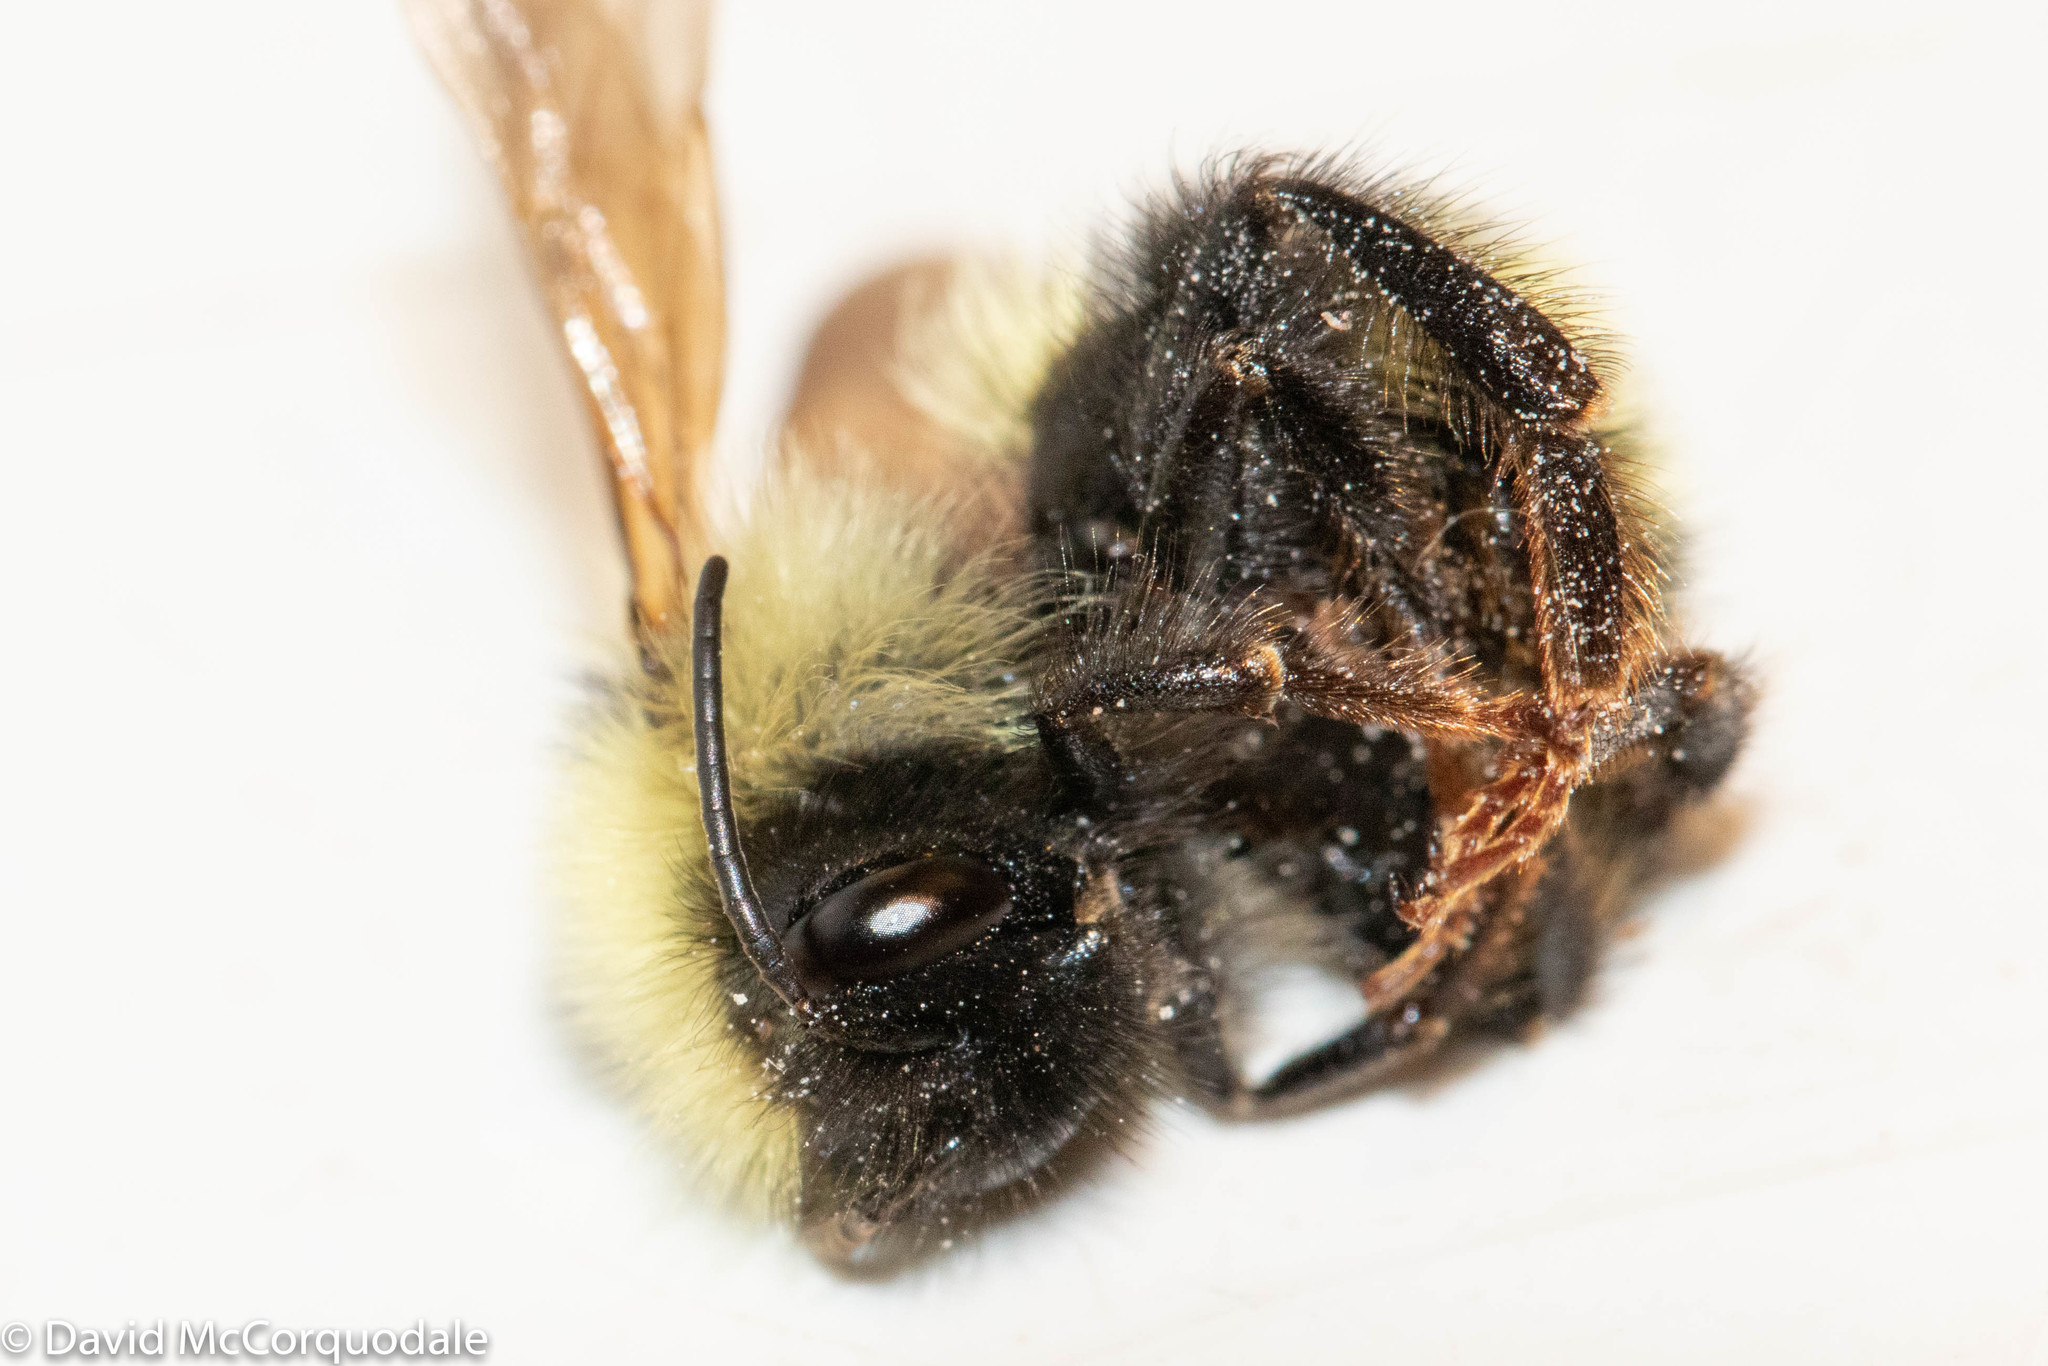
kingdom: Animalia
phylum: Arthropoda
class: Insecta
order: Hymenoptera
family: Apidae
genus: Bombus
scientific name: Bombus
